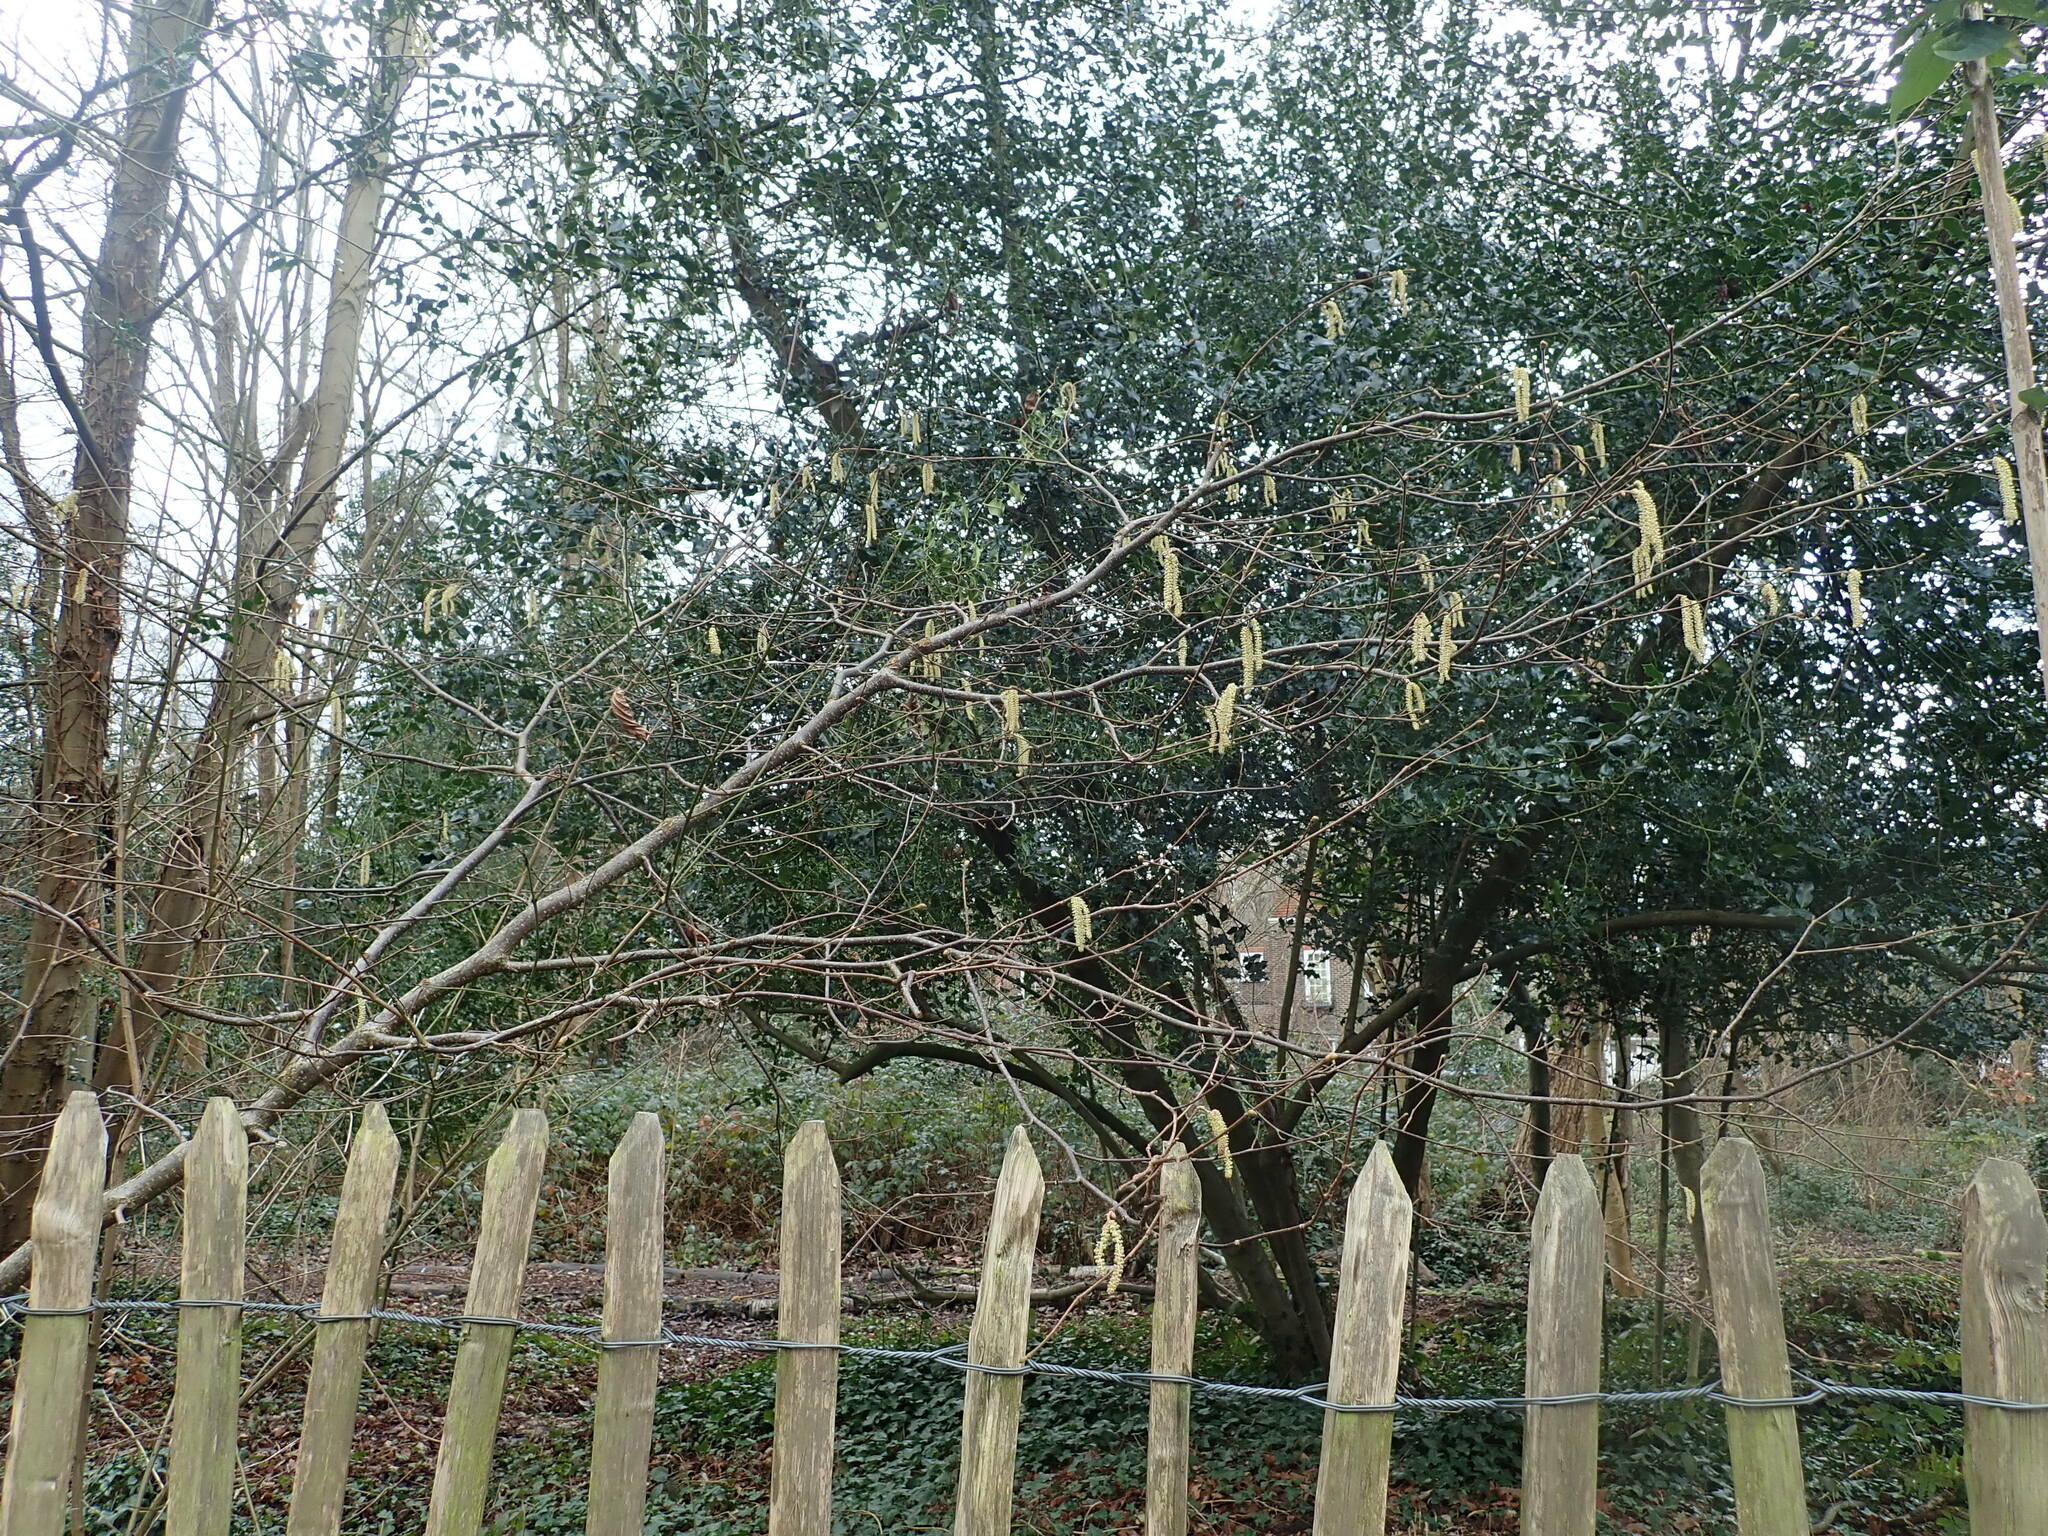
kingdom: Plantae
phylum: Tracheophyta
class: Magnoliopsida
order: Fagales
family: Betulaceae
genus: Corylus
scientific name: Corylus avellana
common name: European hazel
